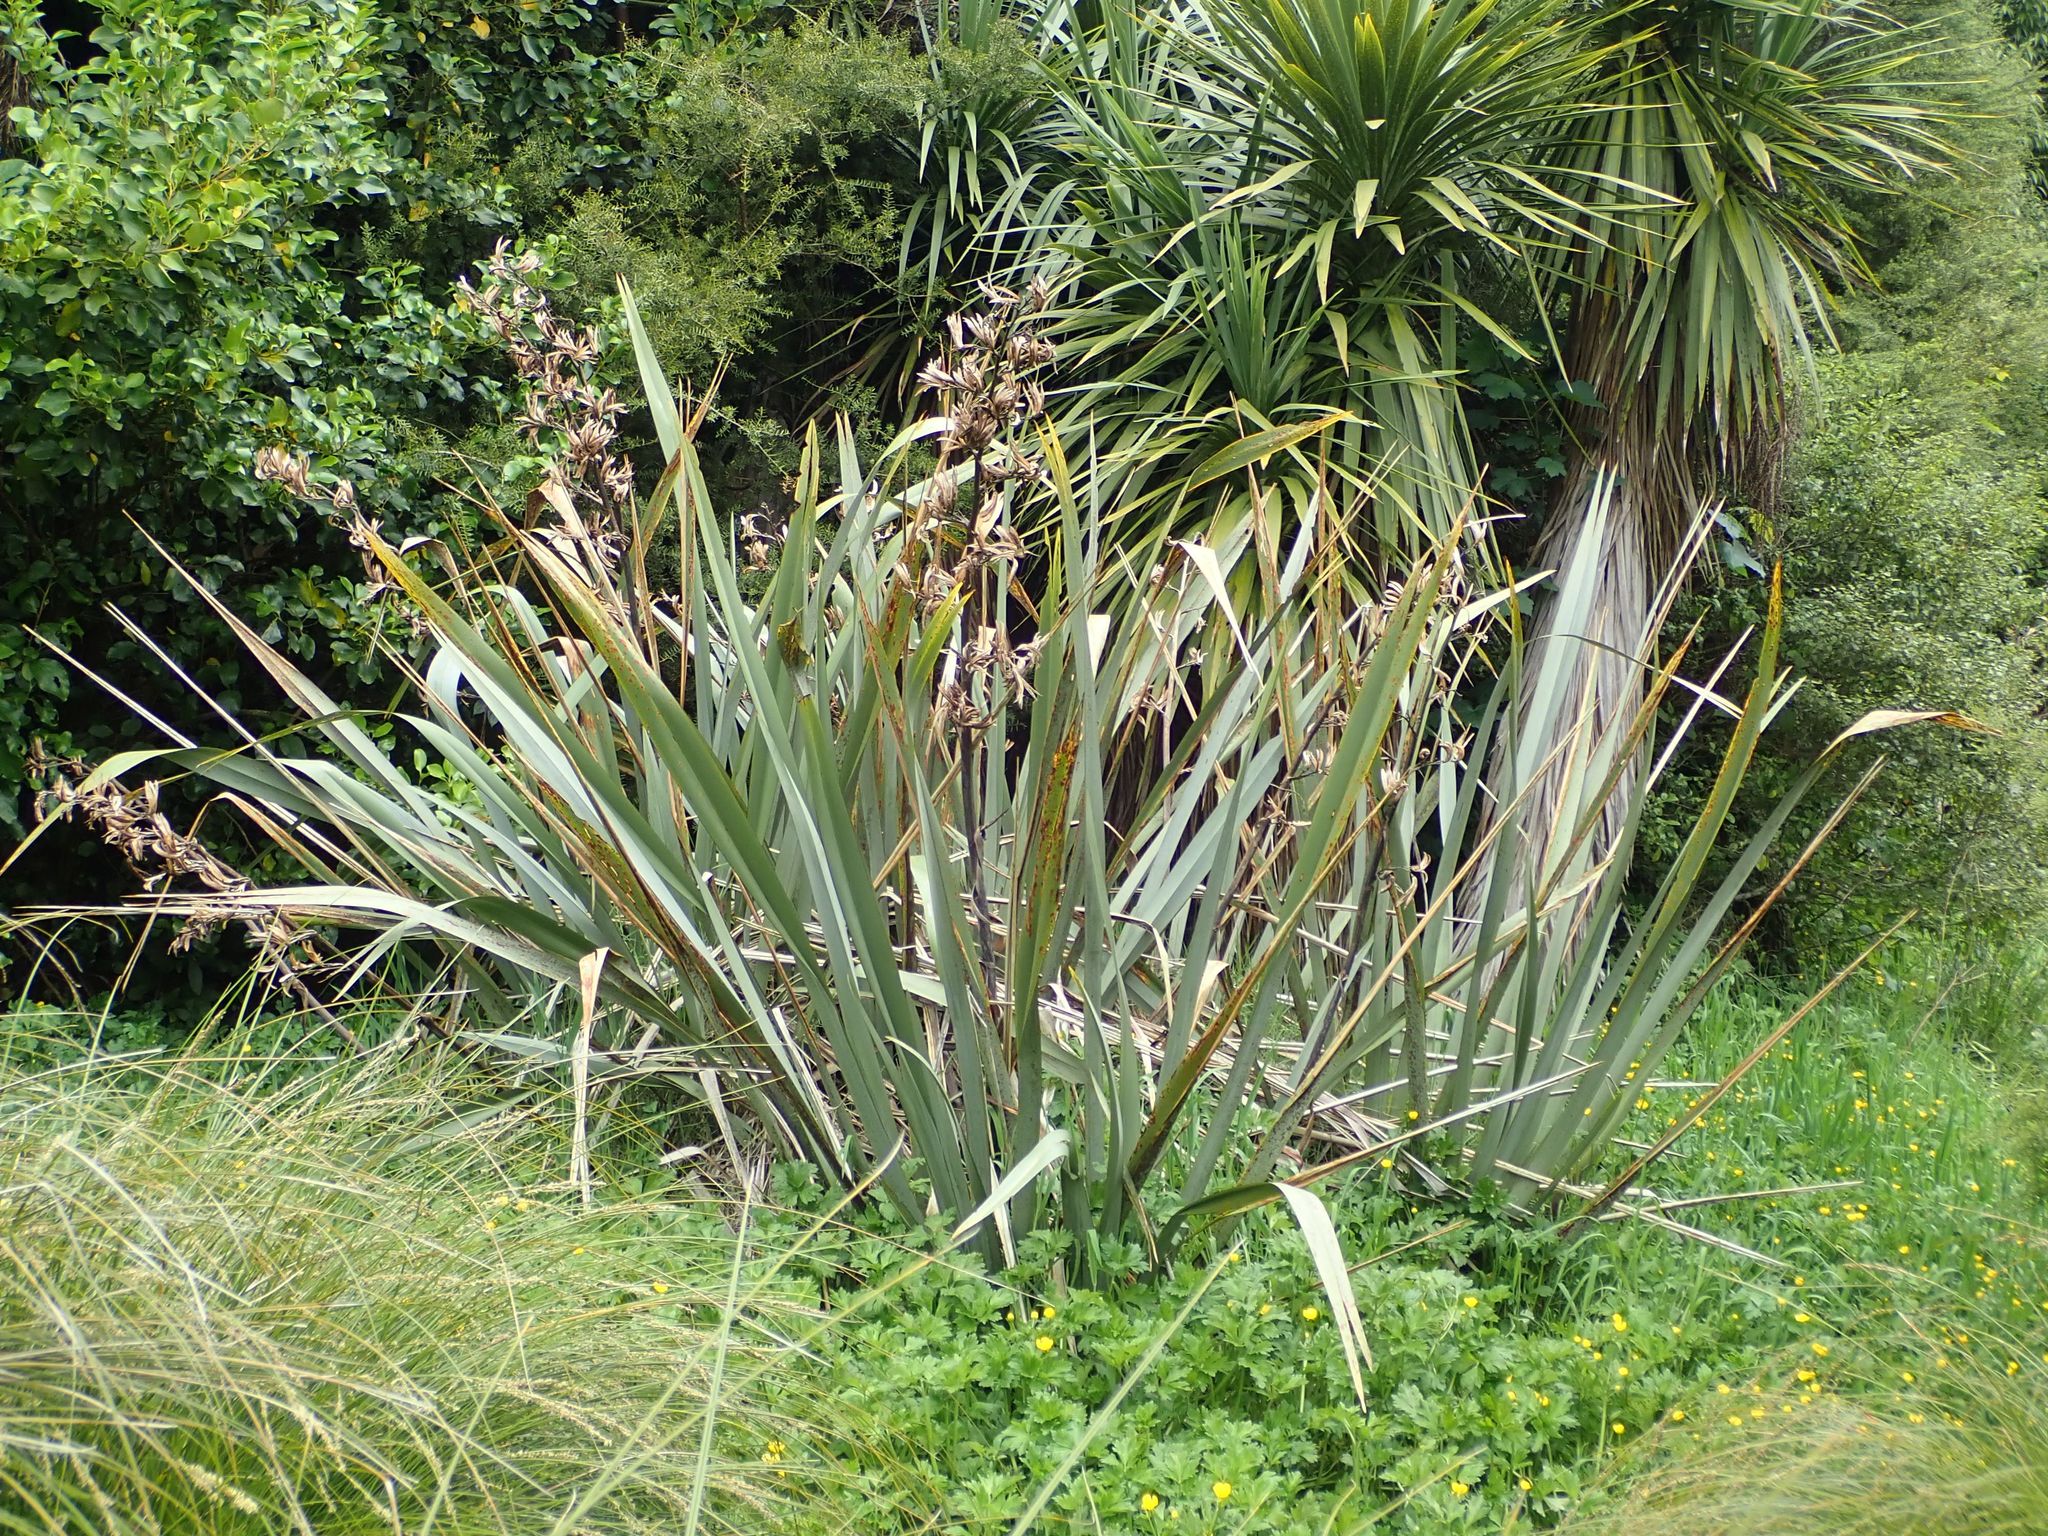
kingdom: Plantae
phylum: Tracheophyta
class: Liliopsida
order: Asparagales
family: Asphodelaceae
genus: Phormium
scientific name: Phormium tenax
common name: New zealand flax
